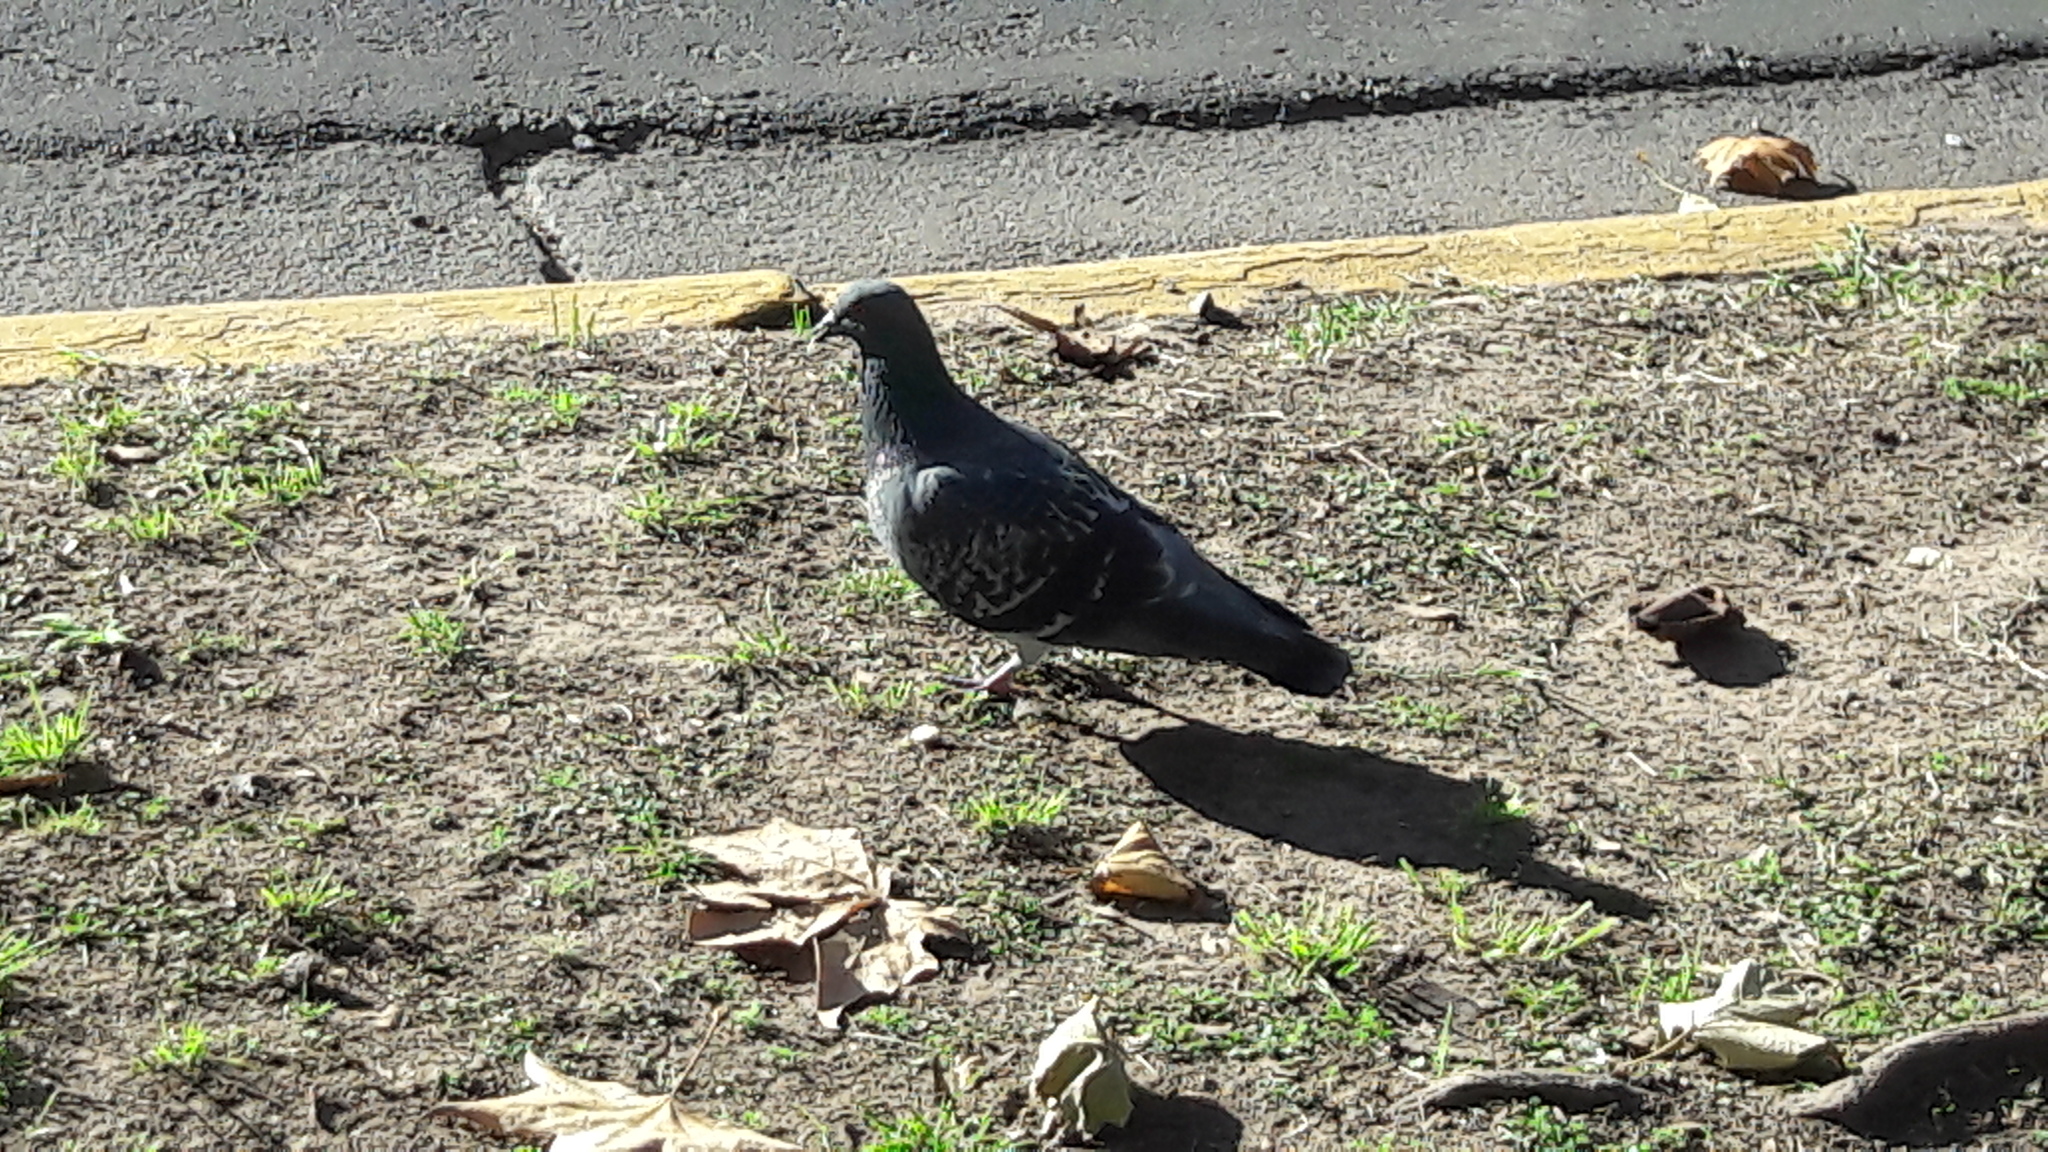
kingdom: Animalia
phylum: Chordata
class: Aves
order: Columbiformes
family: Columbidae
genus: Columba
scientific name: Columba livia
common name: Rock pigeon
